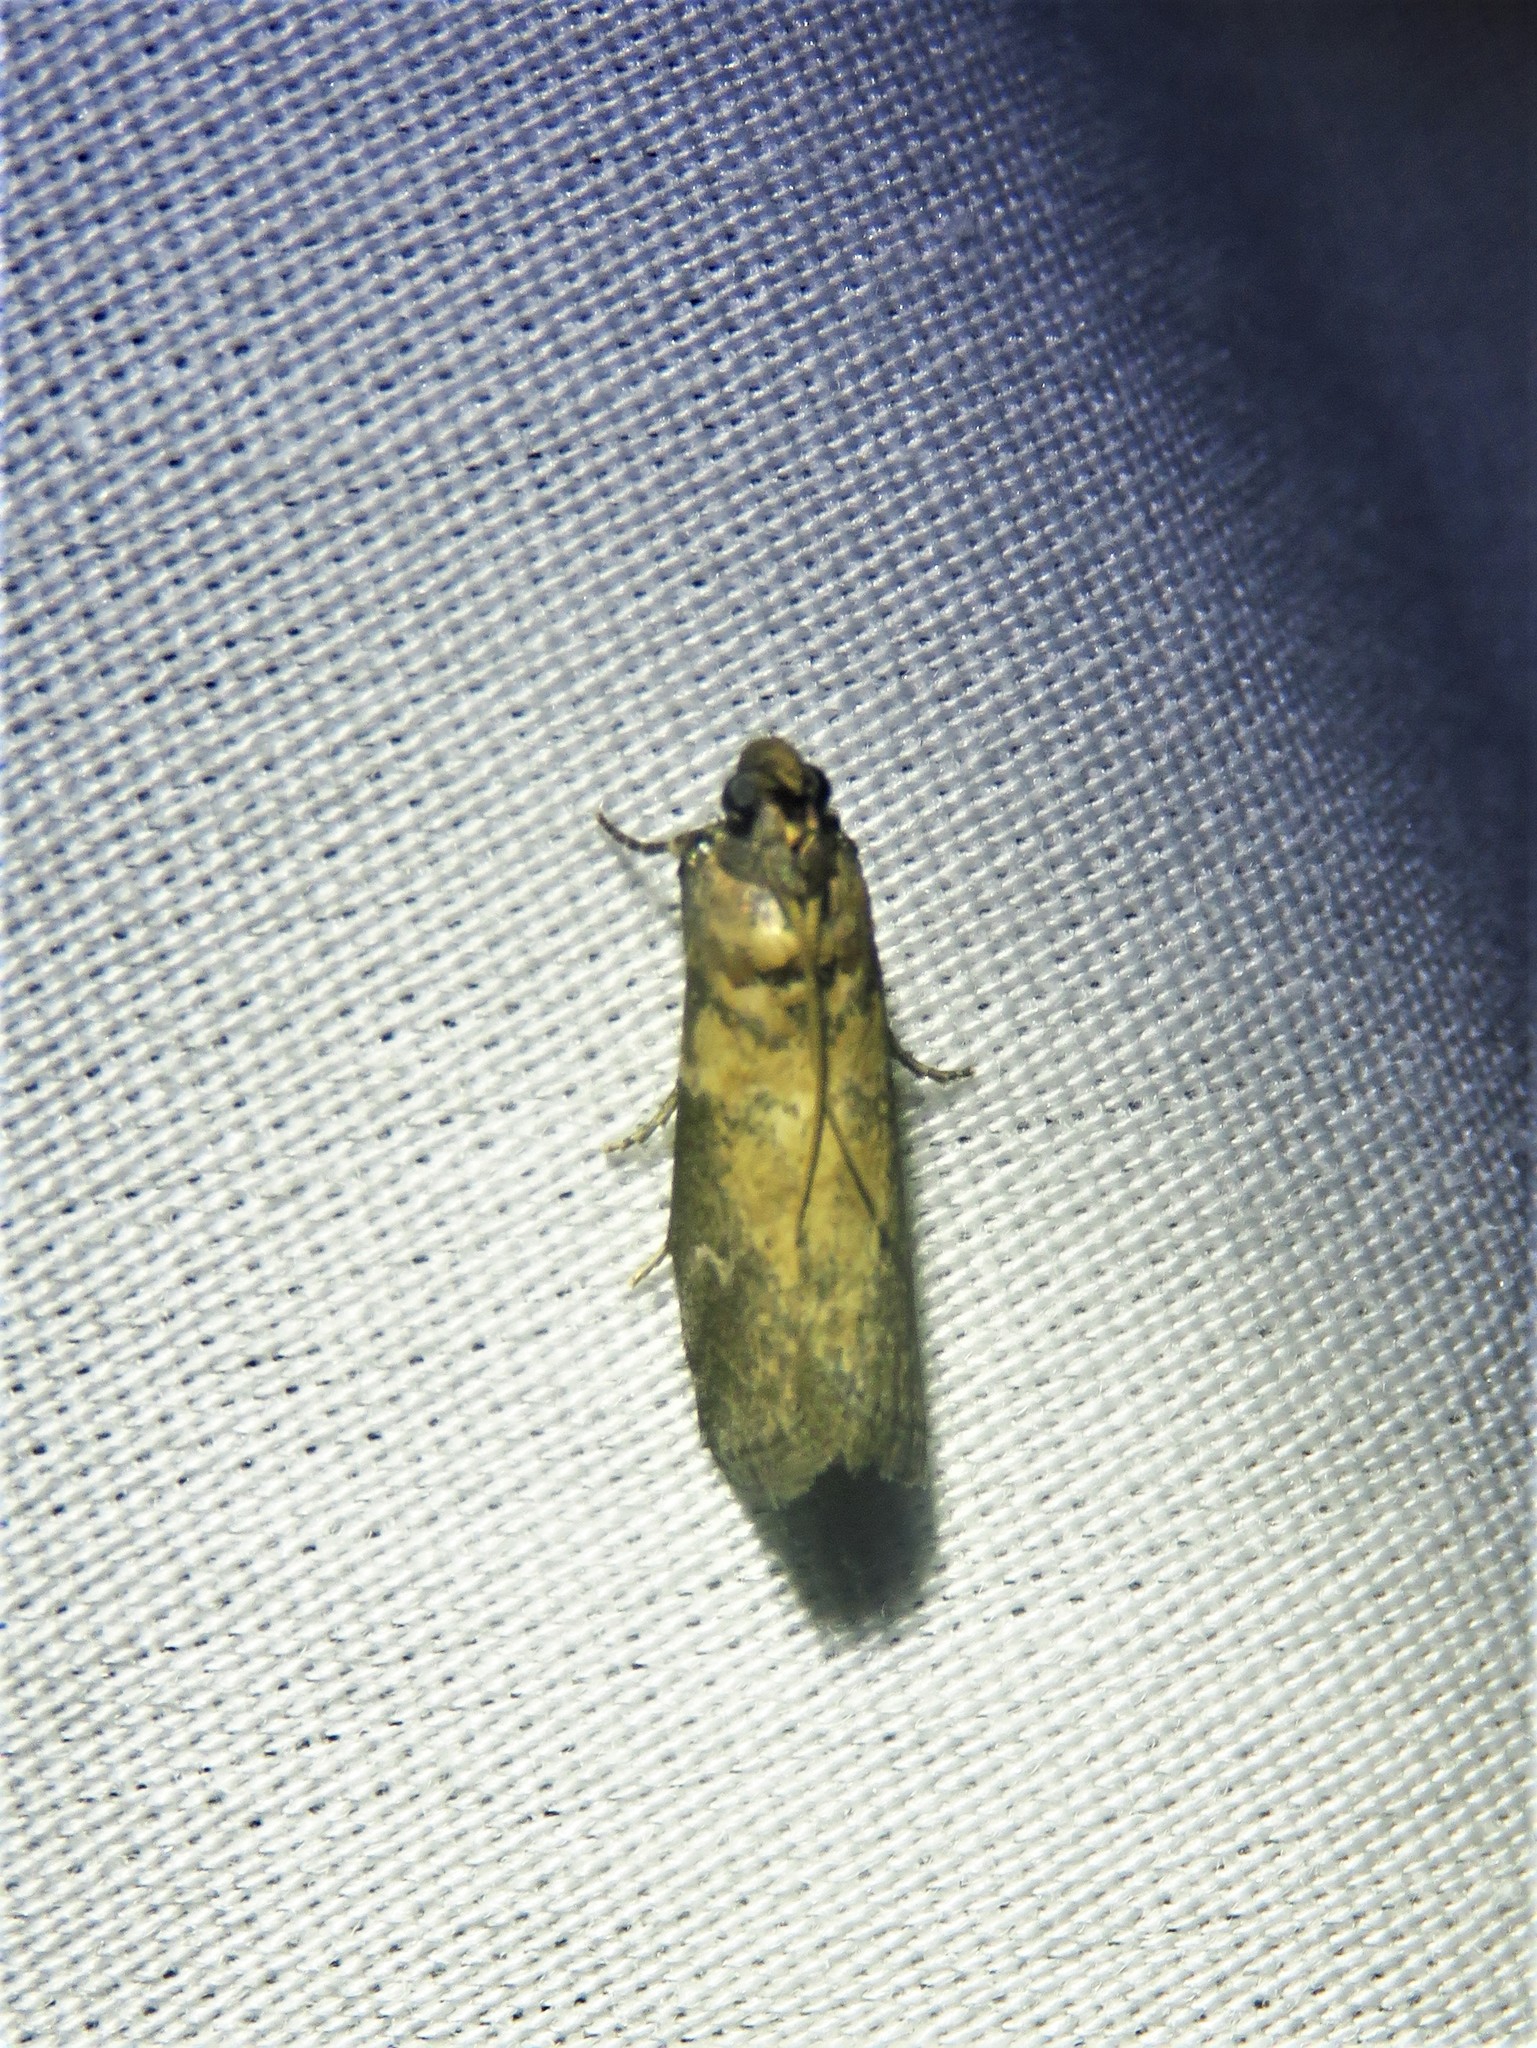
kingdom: Animalia
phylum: Arthropoda
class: Insecta
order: Lepidoptera
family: Pyralidae
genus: Salebriaria
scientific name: Salebriaria simpliciella
